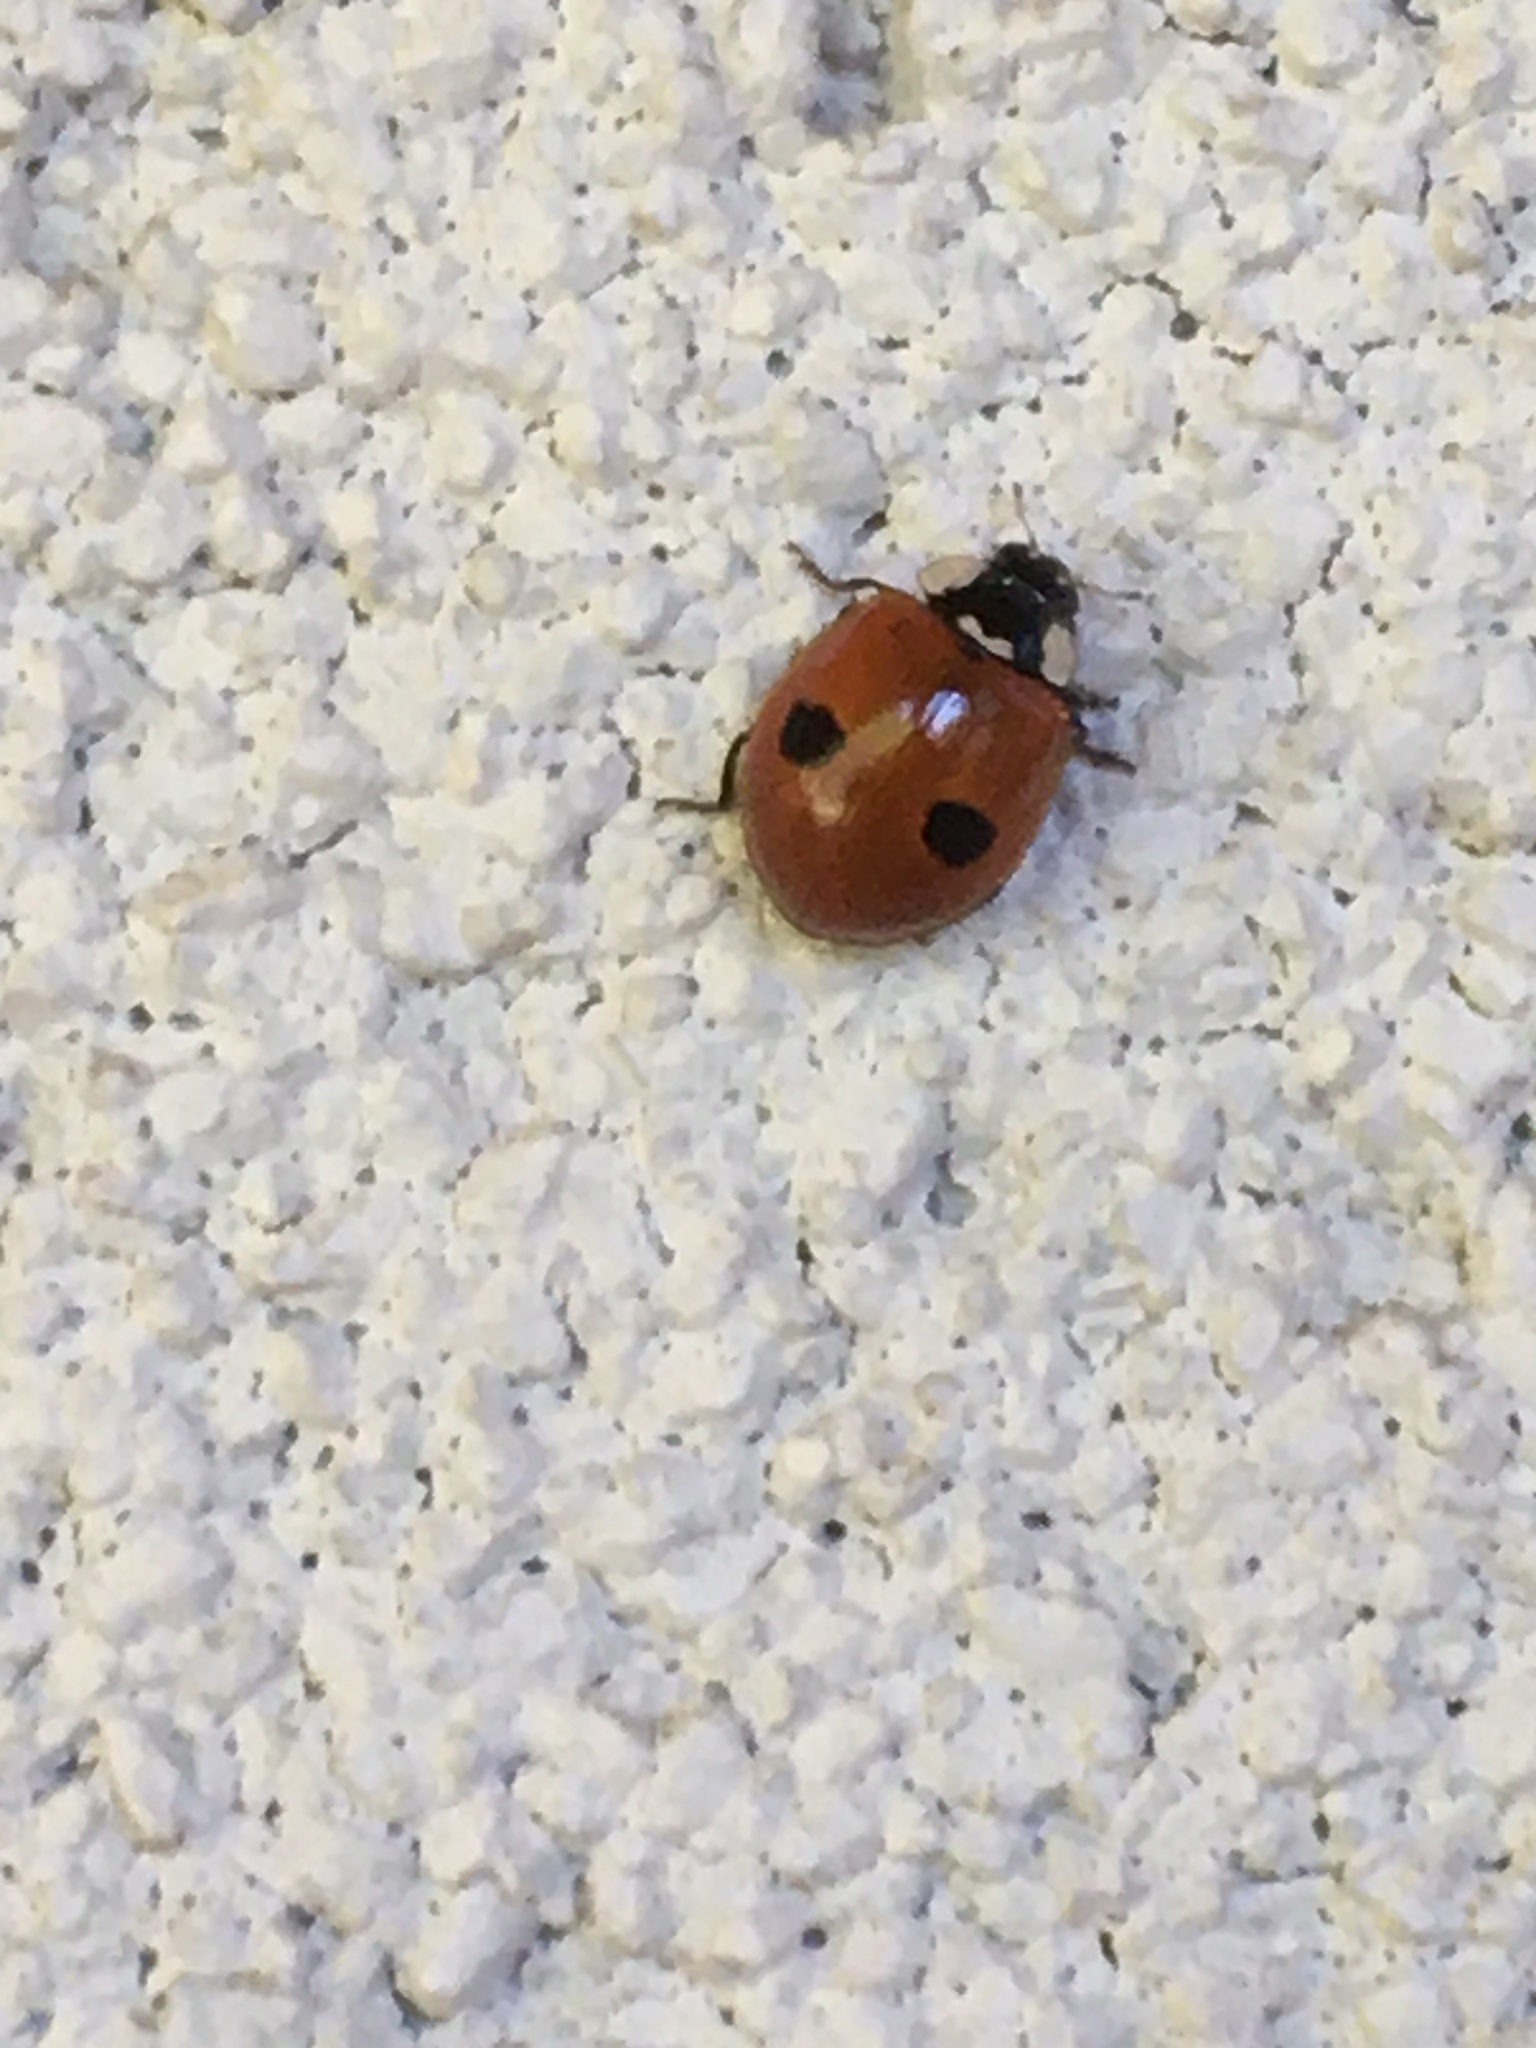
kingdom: Animalia
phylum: Arthropoda
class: Insecta
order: Coleoptera
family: Coccinellidae
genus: Adalia
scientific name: Adalia bipunctata
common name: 2-spot ladybird
